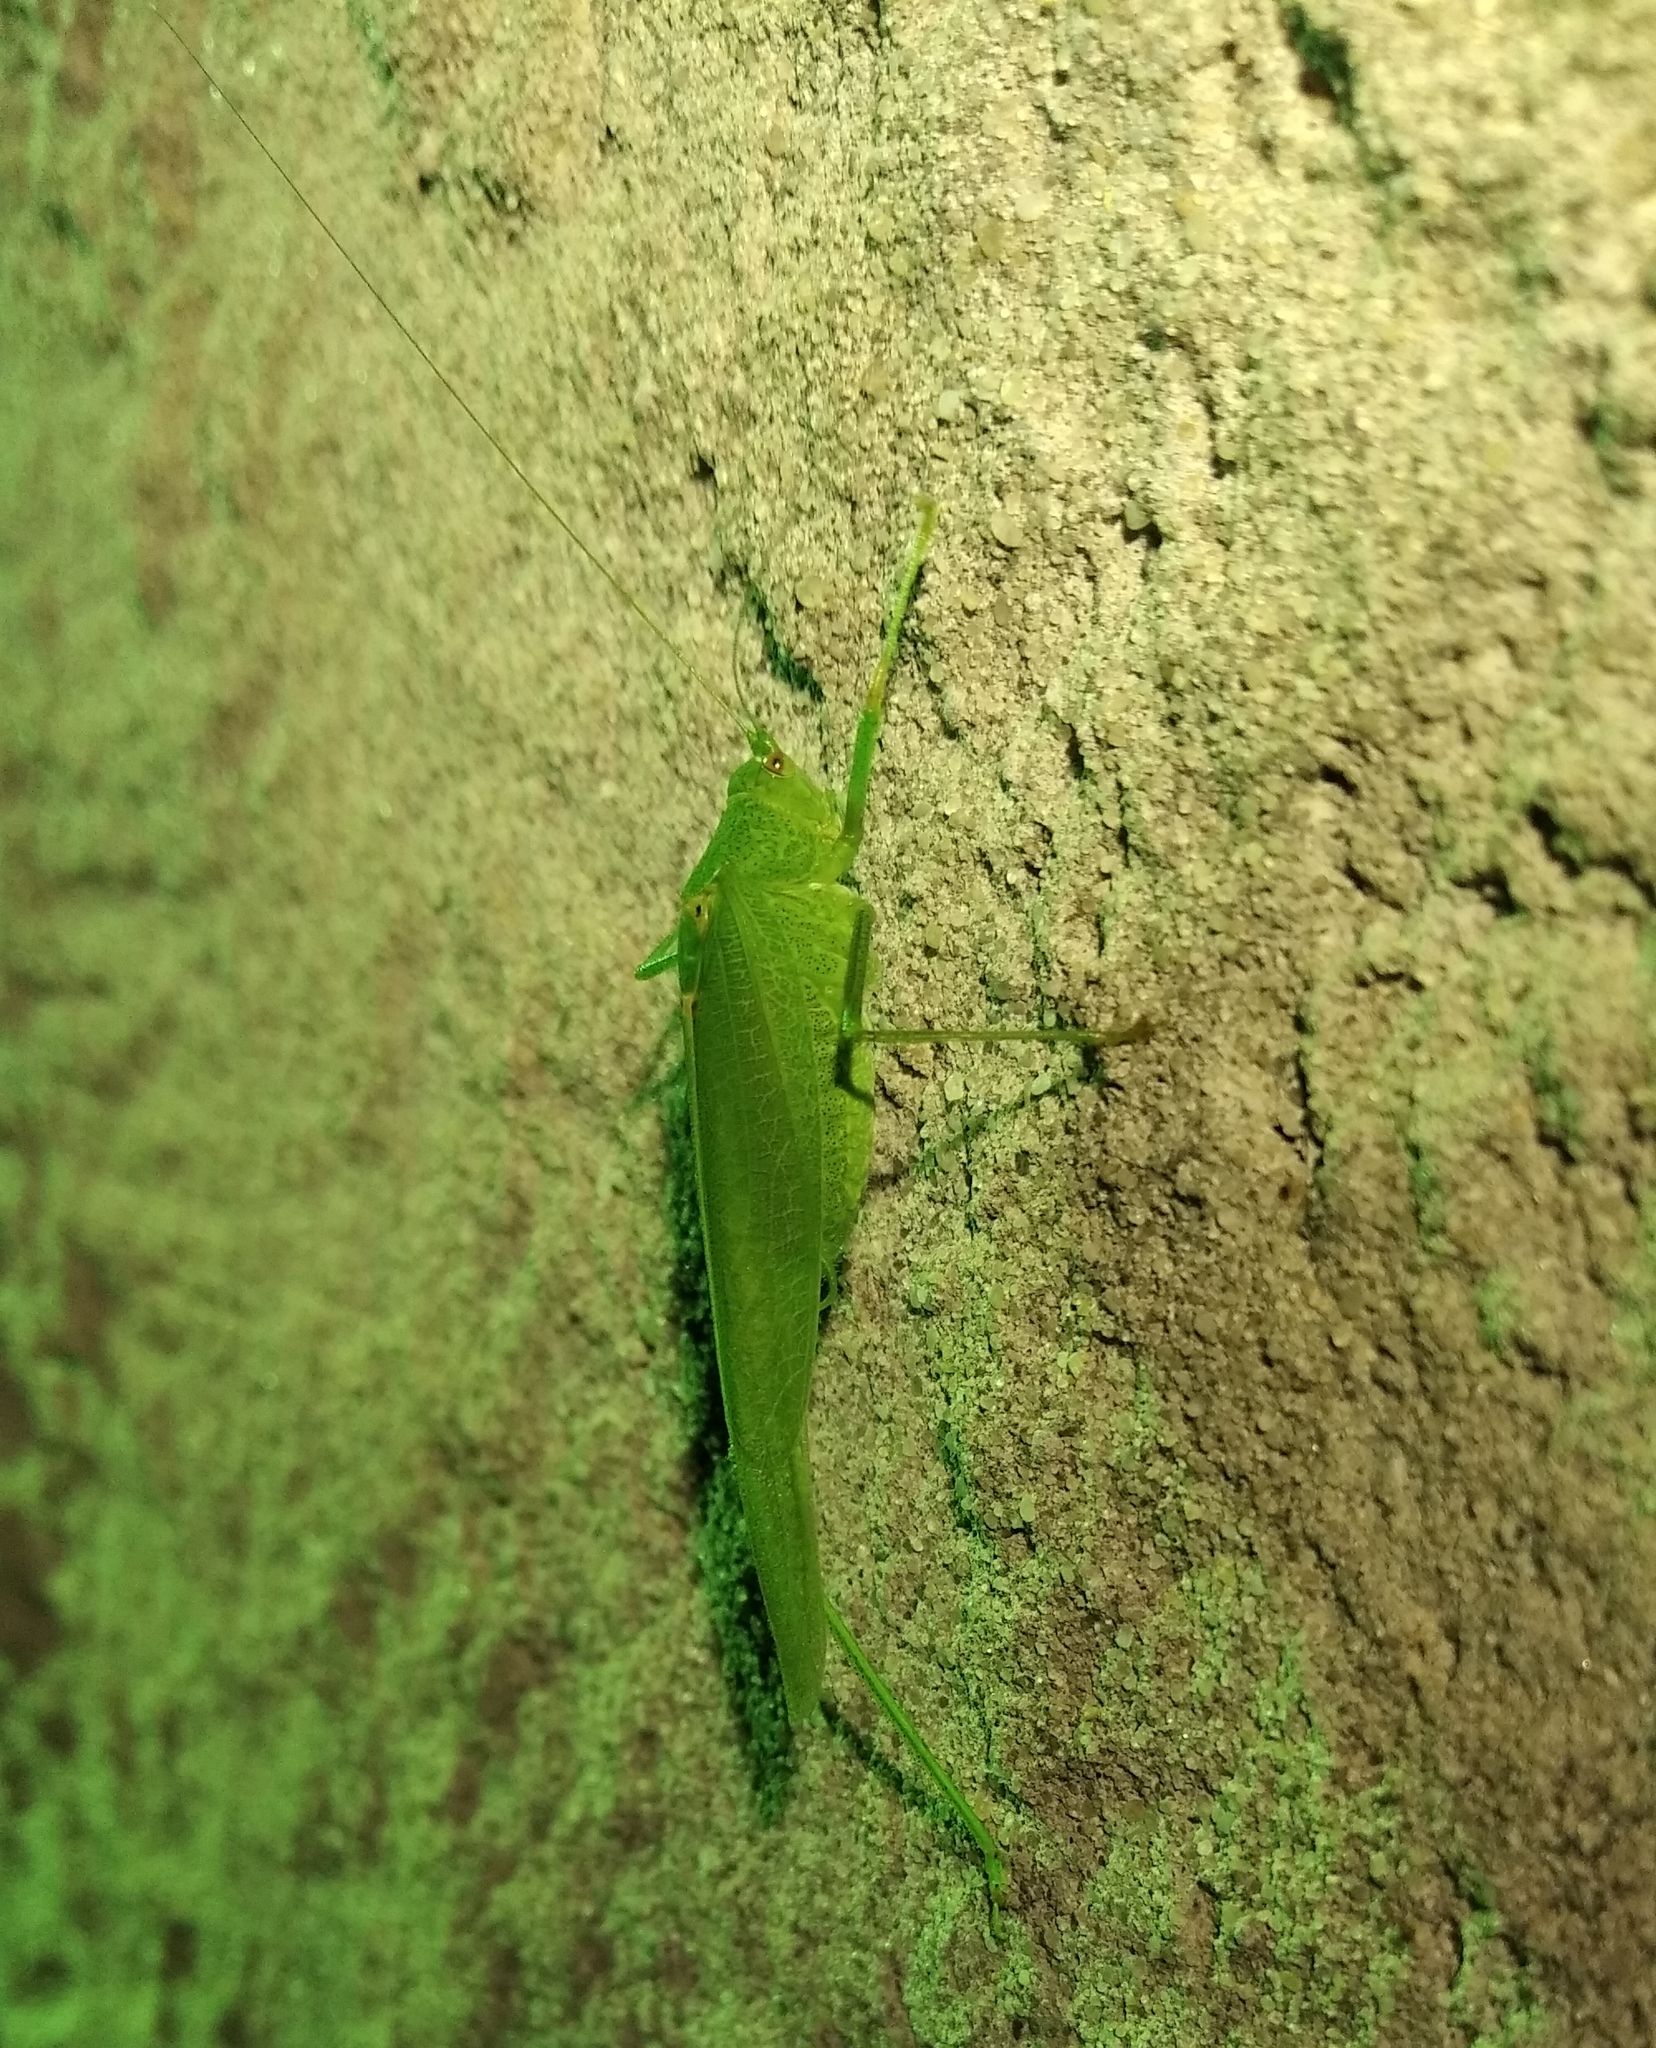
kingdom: Animalia
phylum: Arthropoda
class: Insecta
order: Orthoptera
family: Tettigoniidae
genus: Phaneroptera
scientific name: Phaneroptera nana
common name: Southern sickle bush-cricket
